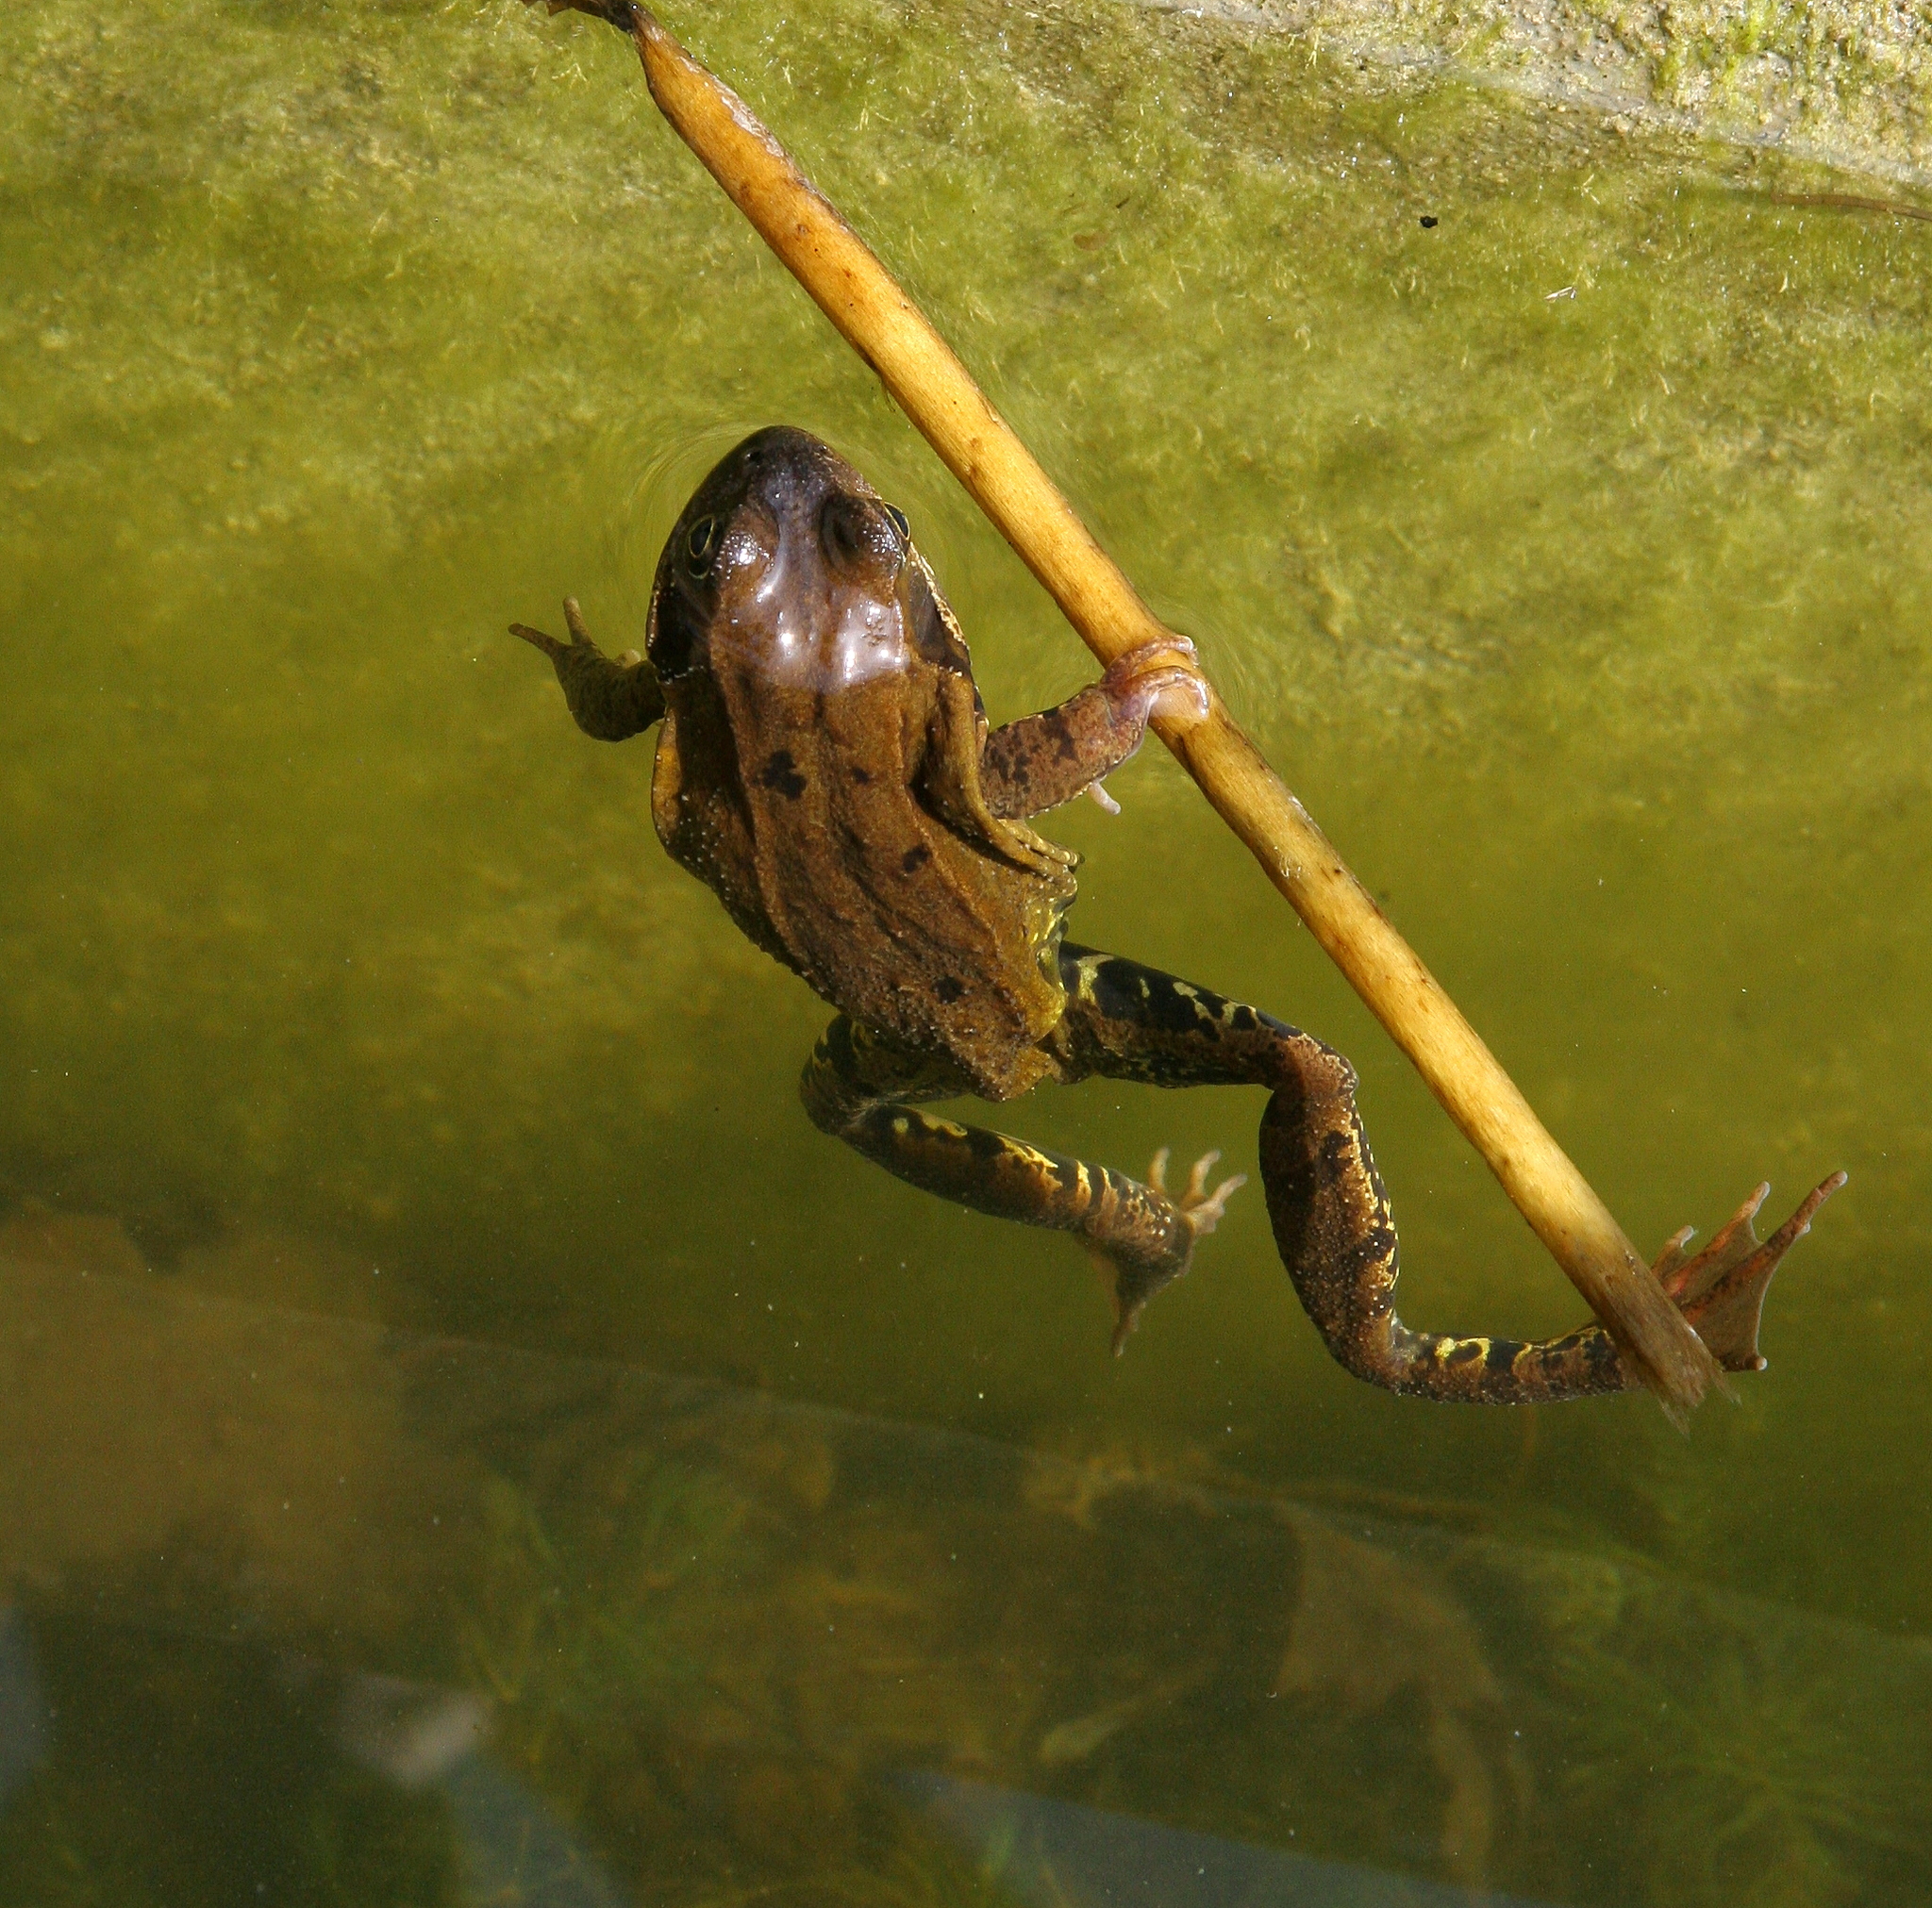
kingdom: Animalia
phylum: Chordata
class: Amphibia
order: Anura
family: Ranidae
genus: Rana
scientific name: Rana temporaria
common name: Common frog
